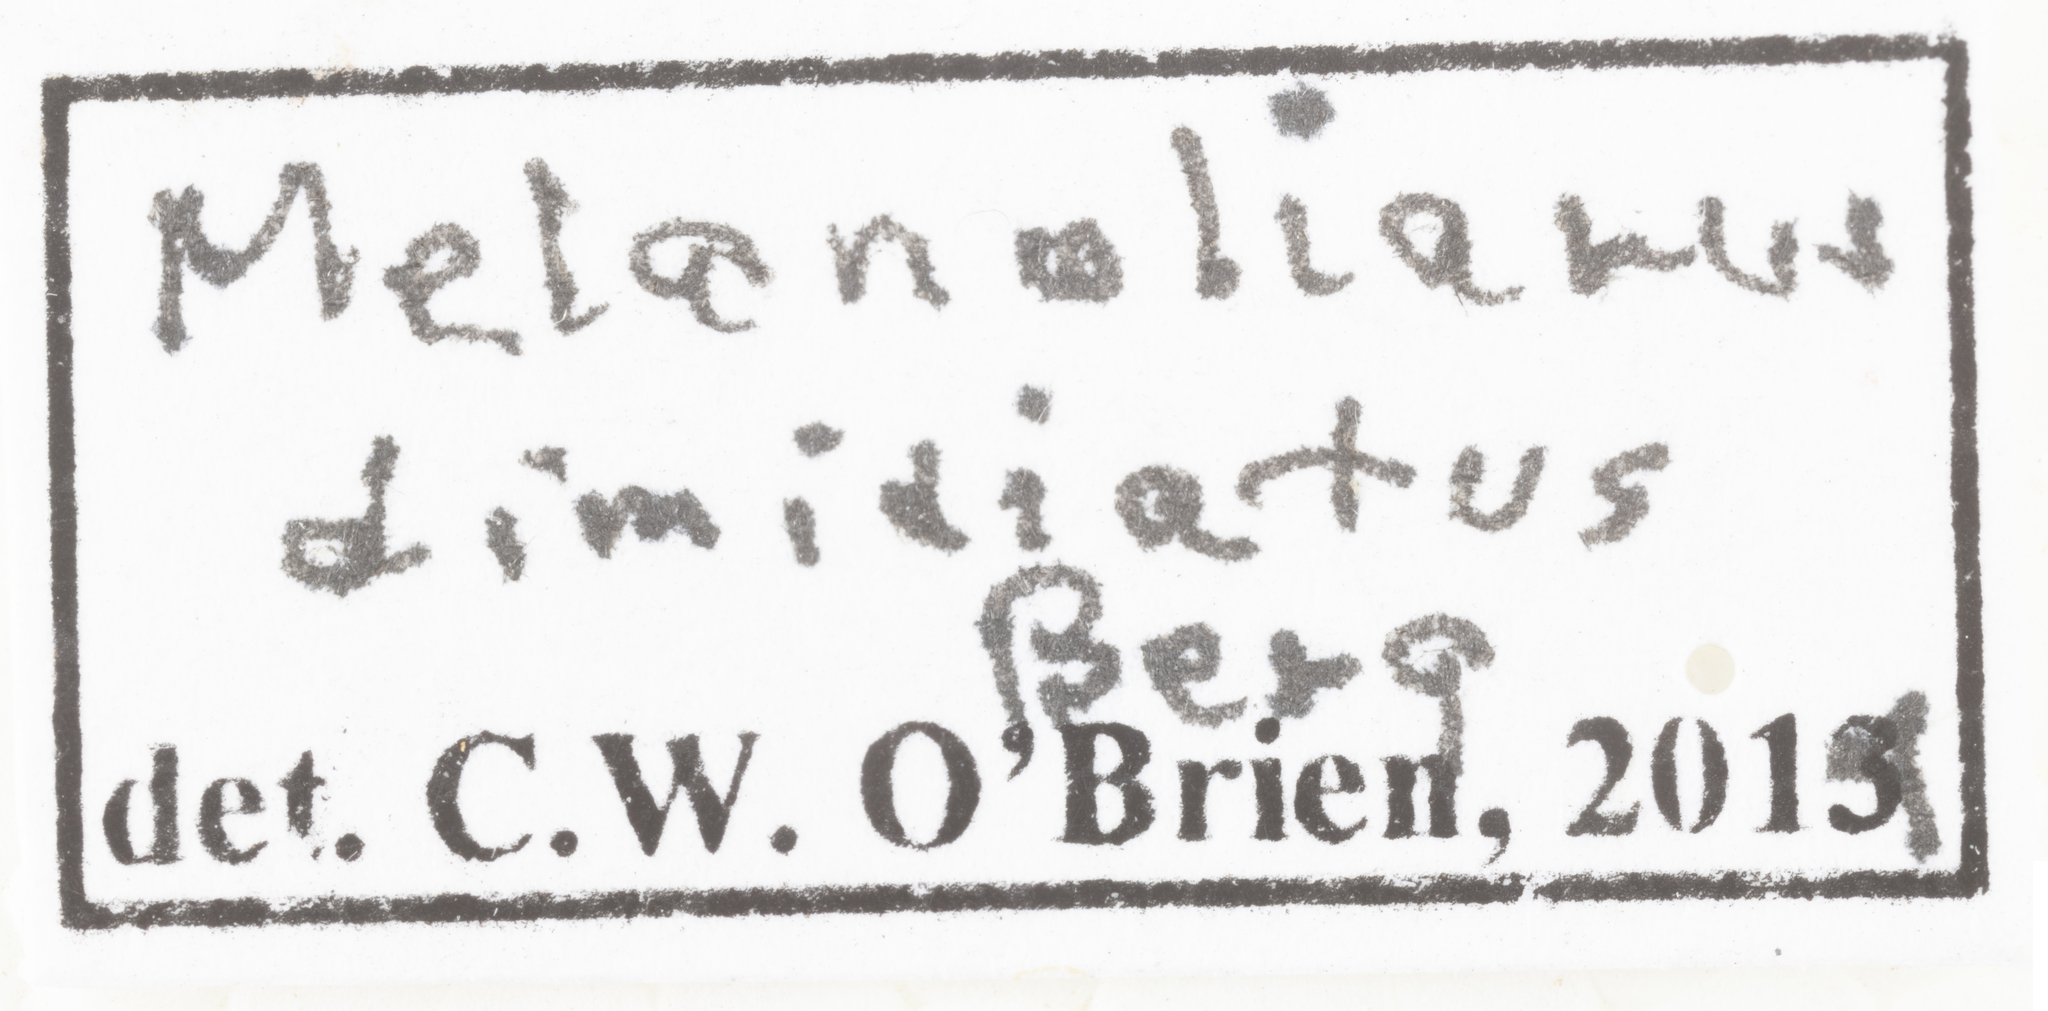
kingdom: Animalia
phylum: Arthropoda
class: Insecta
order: Hemiptera
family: Cixiidae
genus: Melanoliarus
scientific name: Melanoliarus dimidiatus
